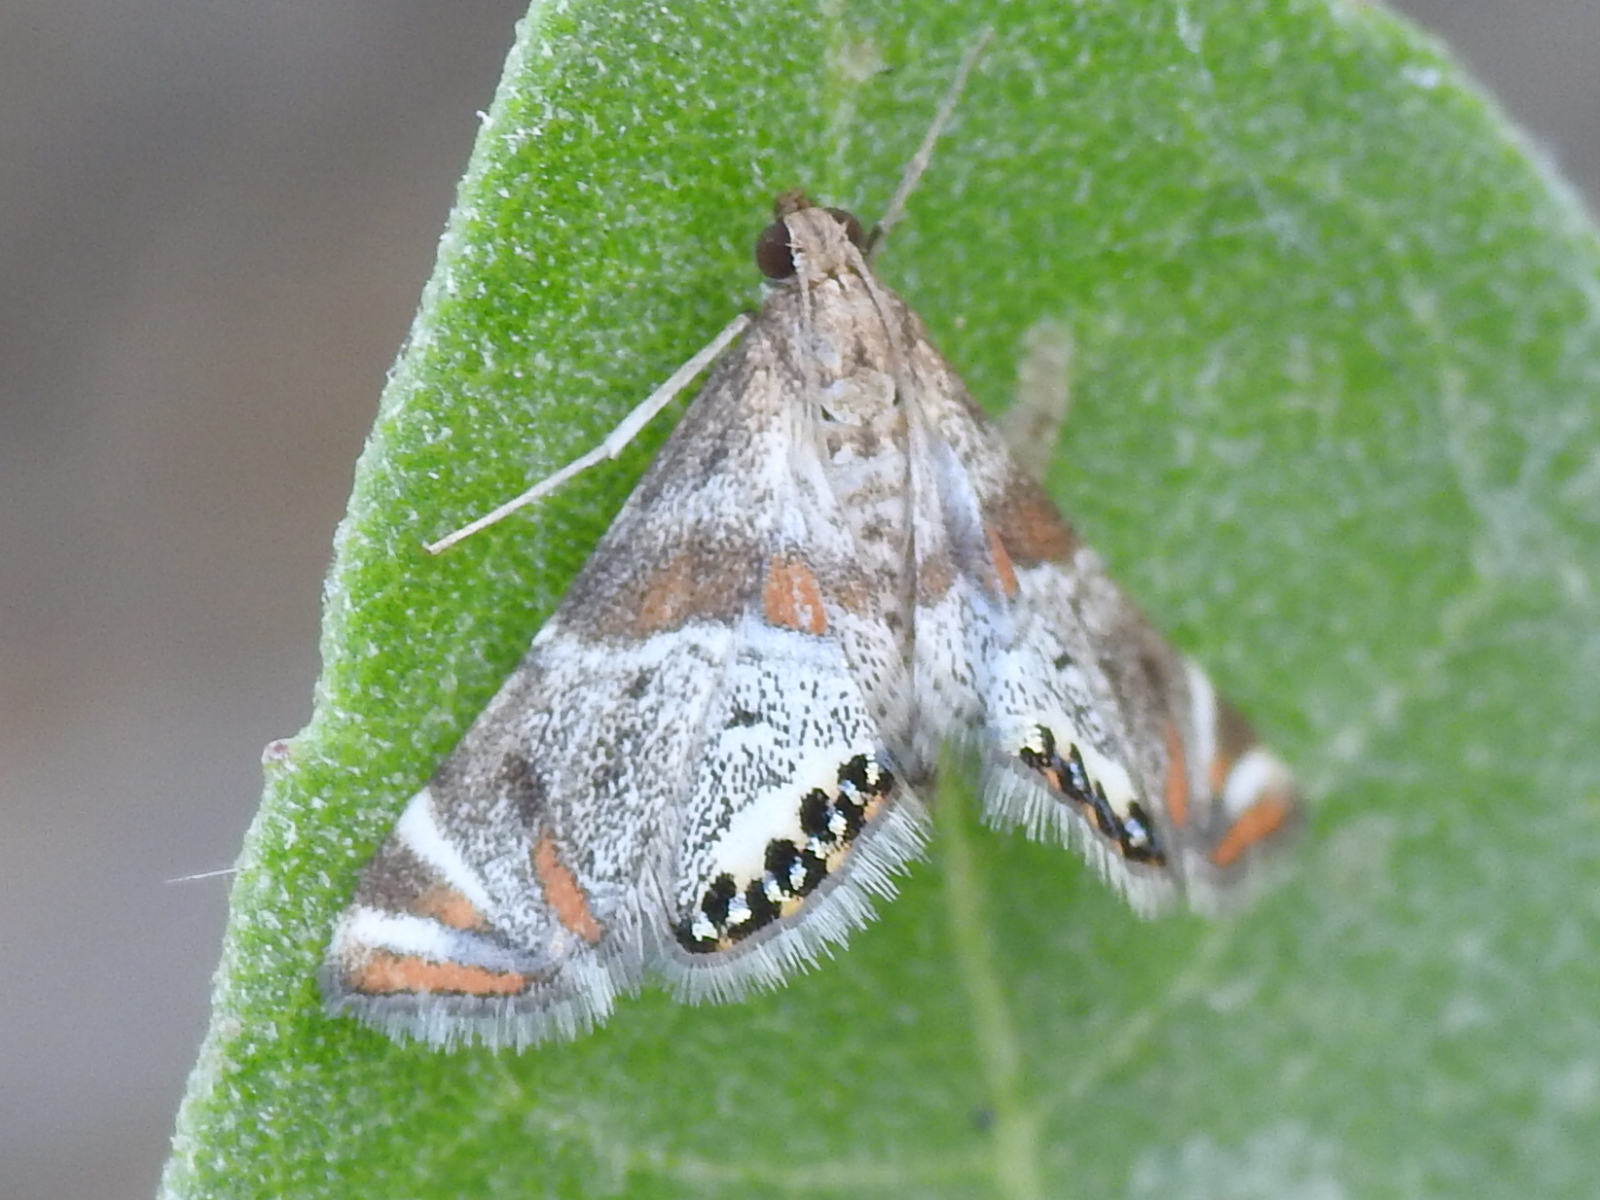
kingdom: Animalia
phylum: Arthropoda
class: Insecta
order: Lepidoptera
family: Crambidae
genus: Petrophila
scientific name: Petrophila jaliscalis
